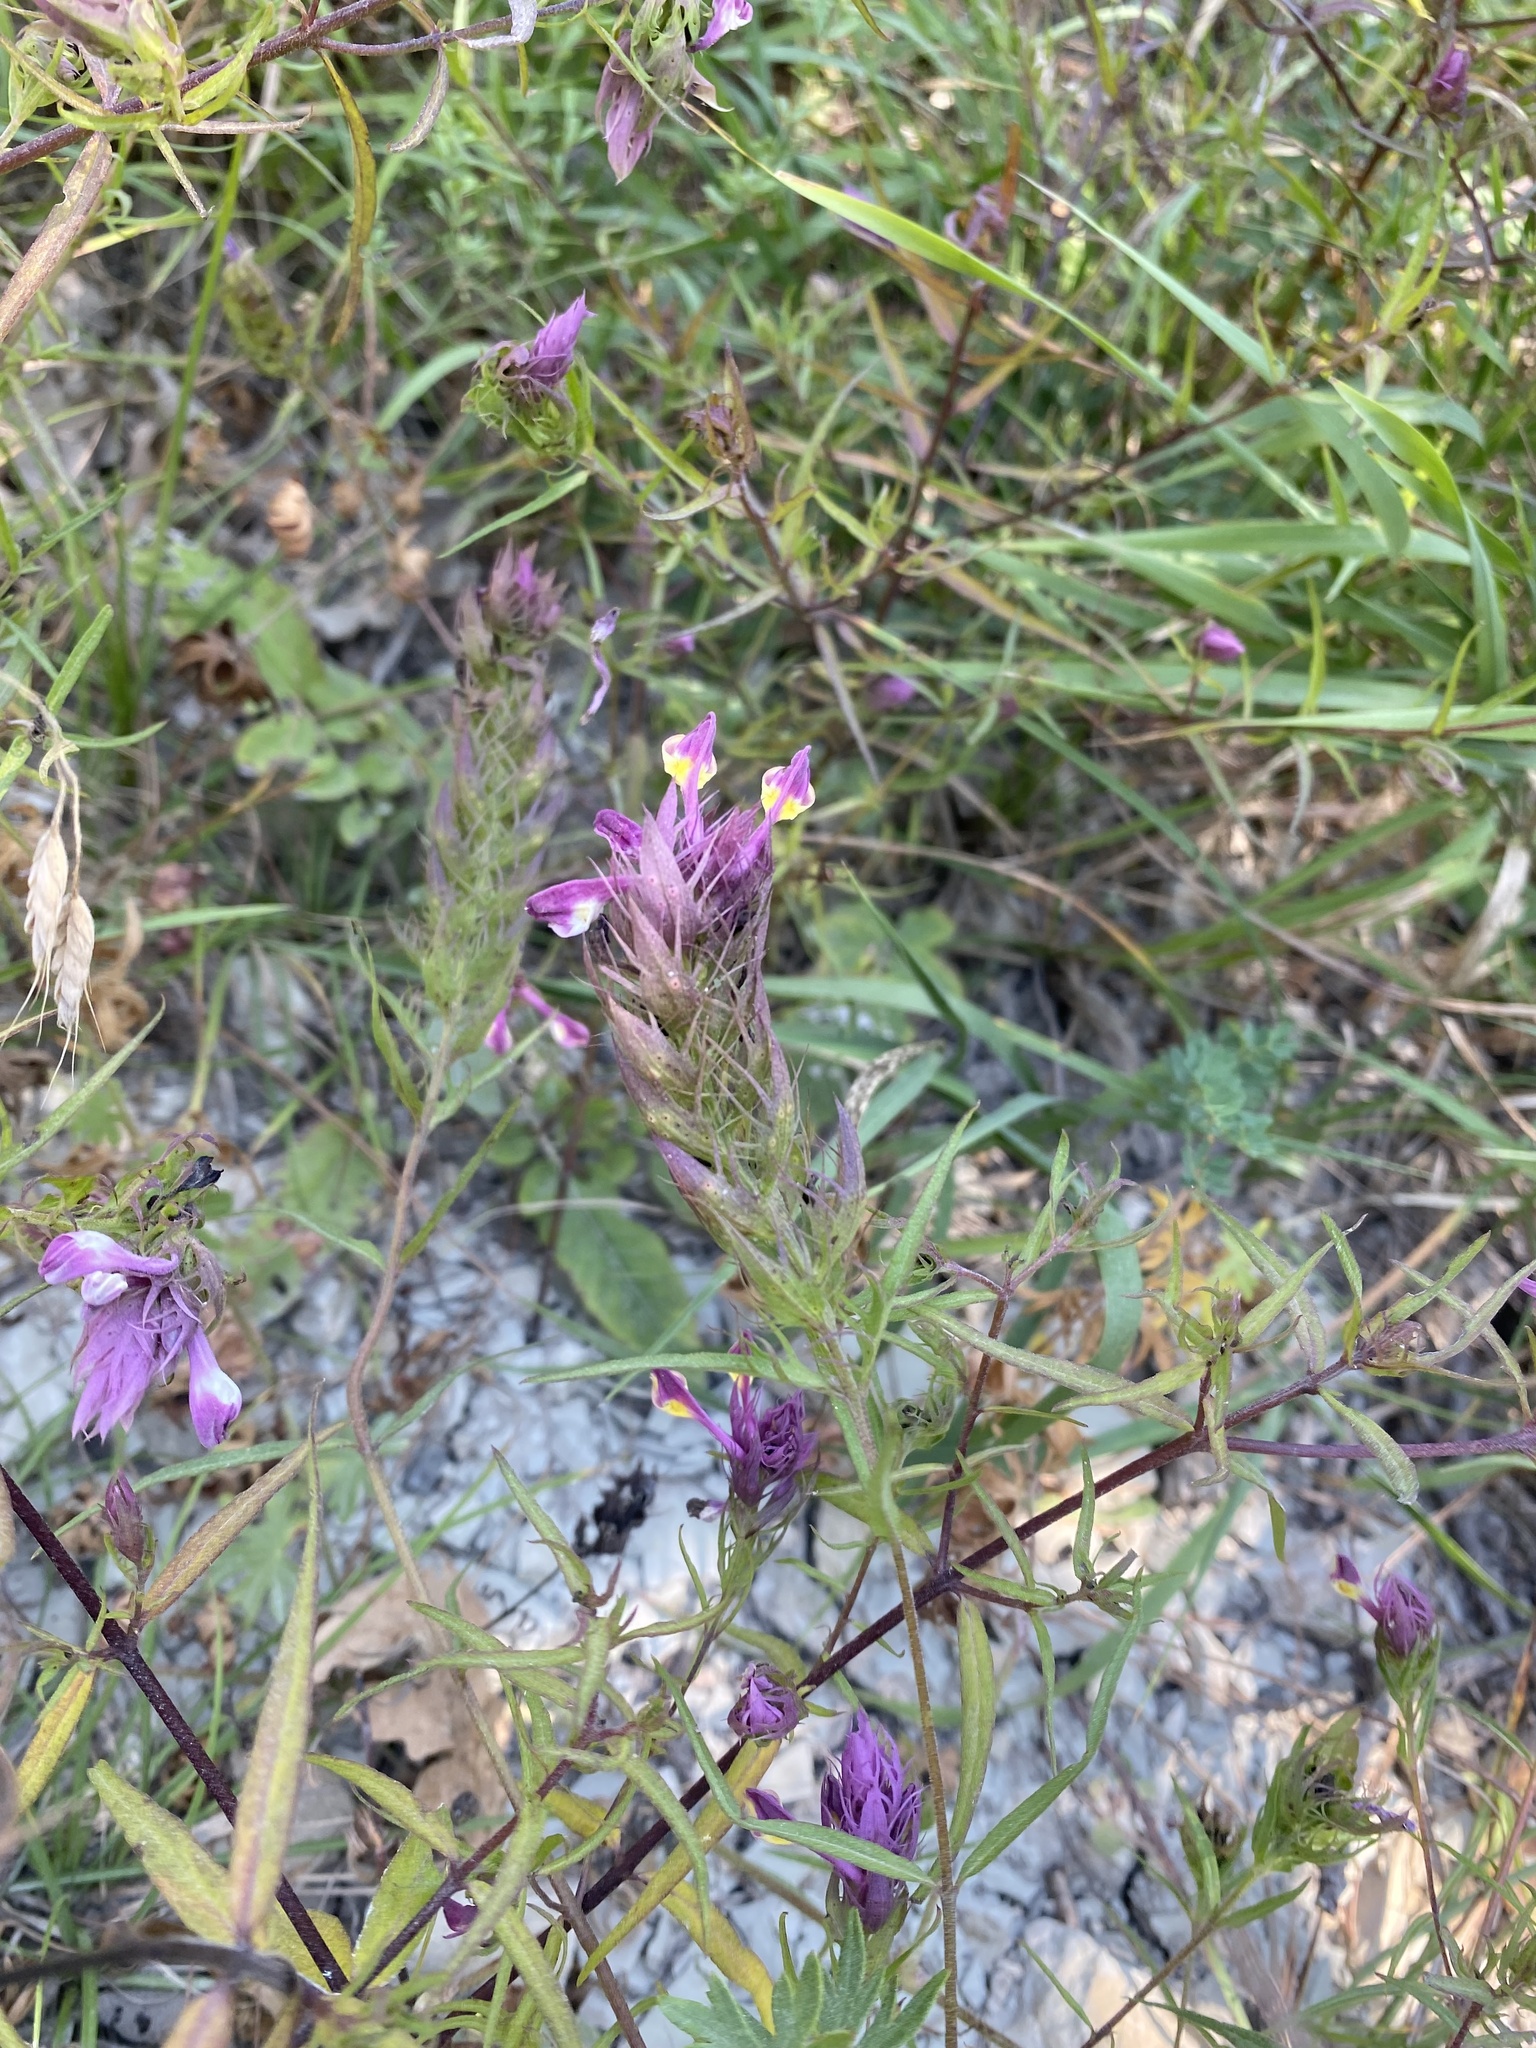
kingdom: Plantae
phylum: Tracheophyta
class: Magnoliopsida
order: Lamiales
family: Orobanchaceae
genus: Melampyrum
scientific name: Melampyrum arvense
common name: Field cow-wheat
